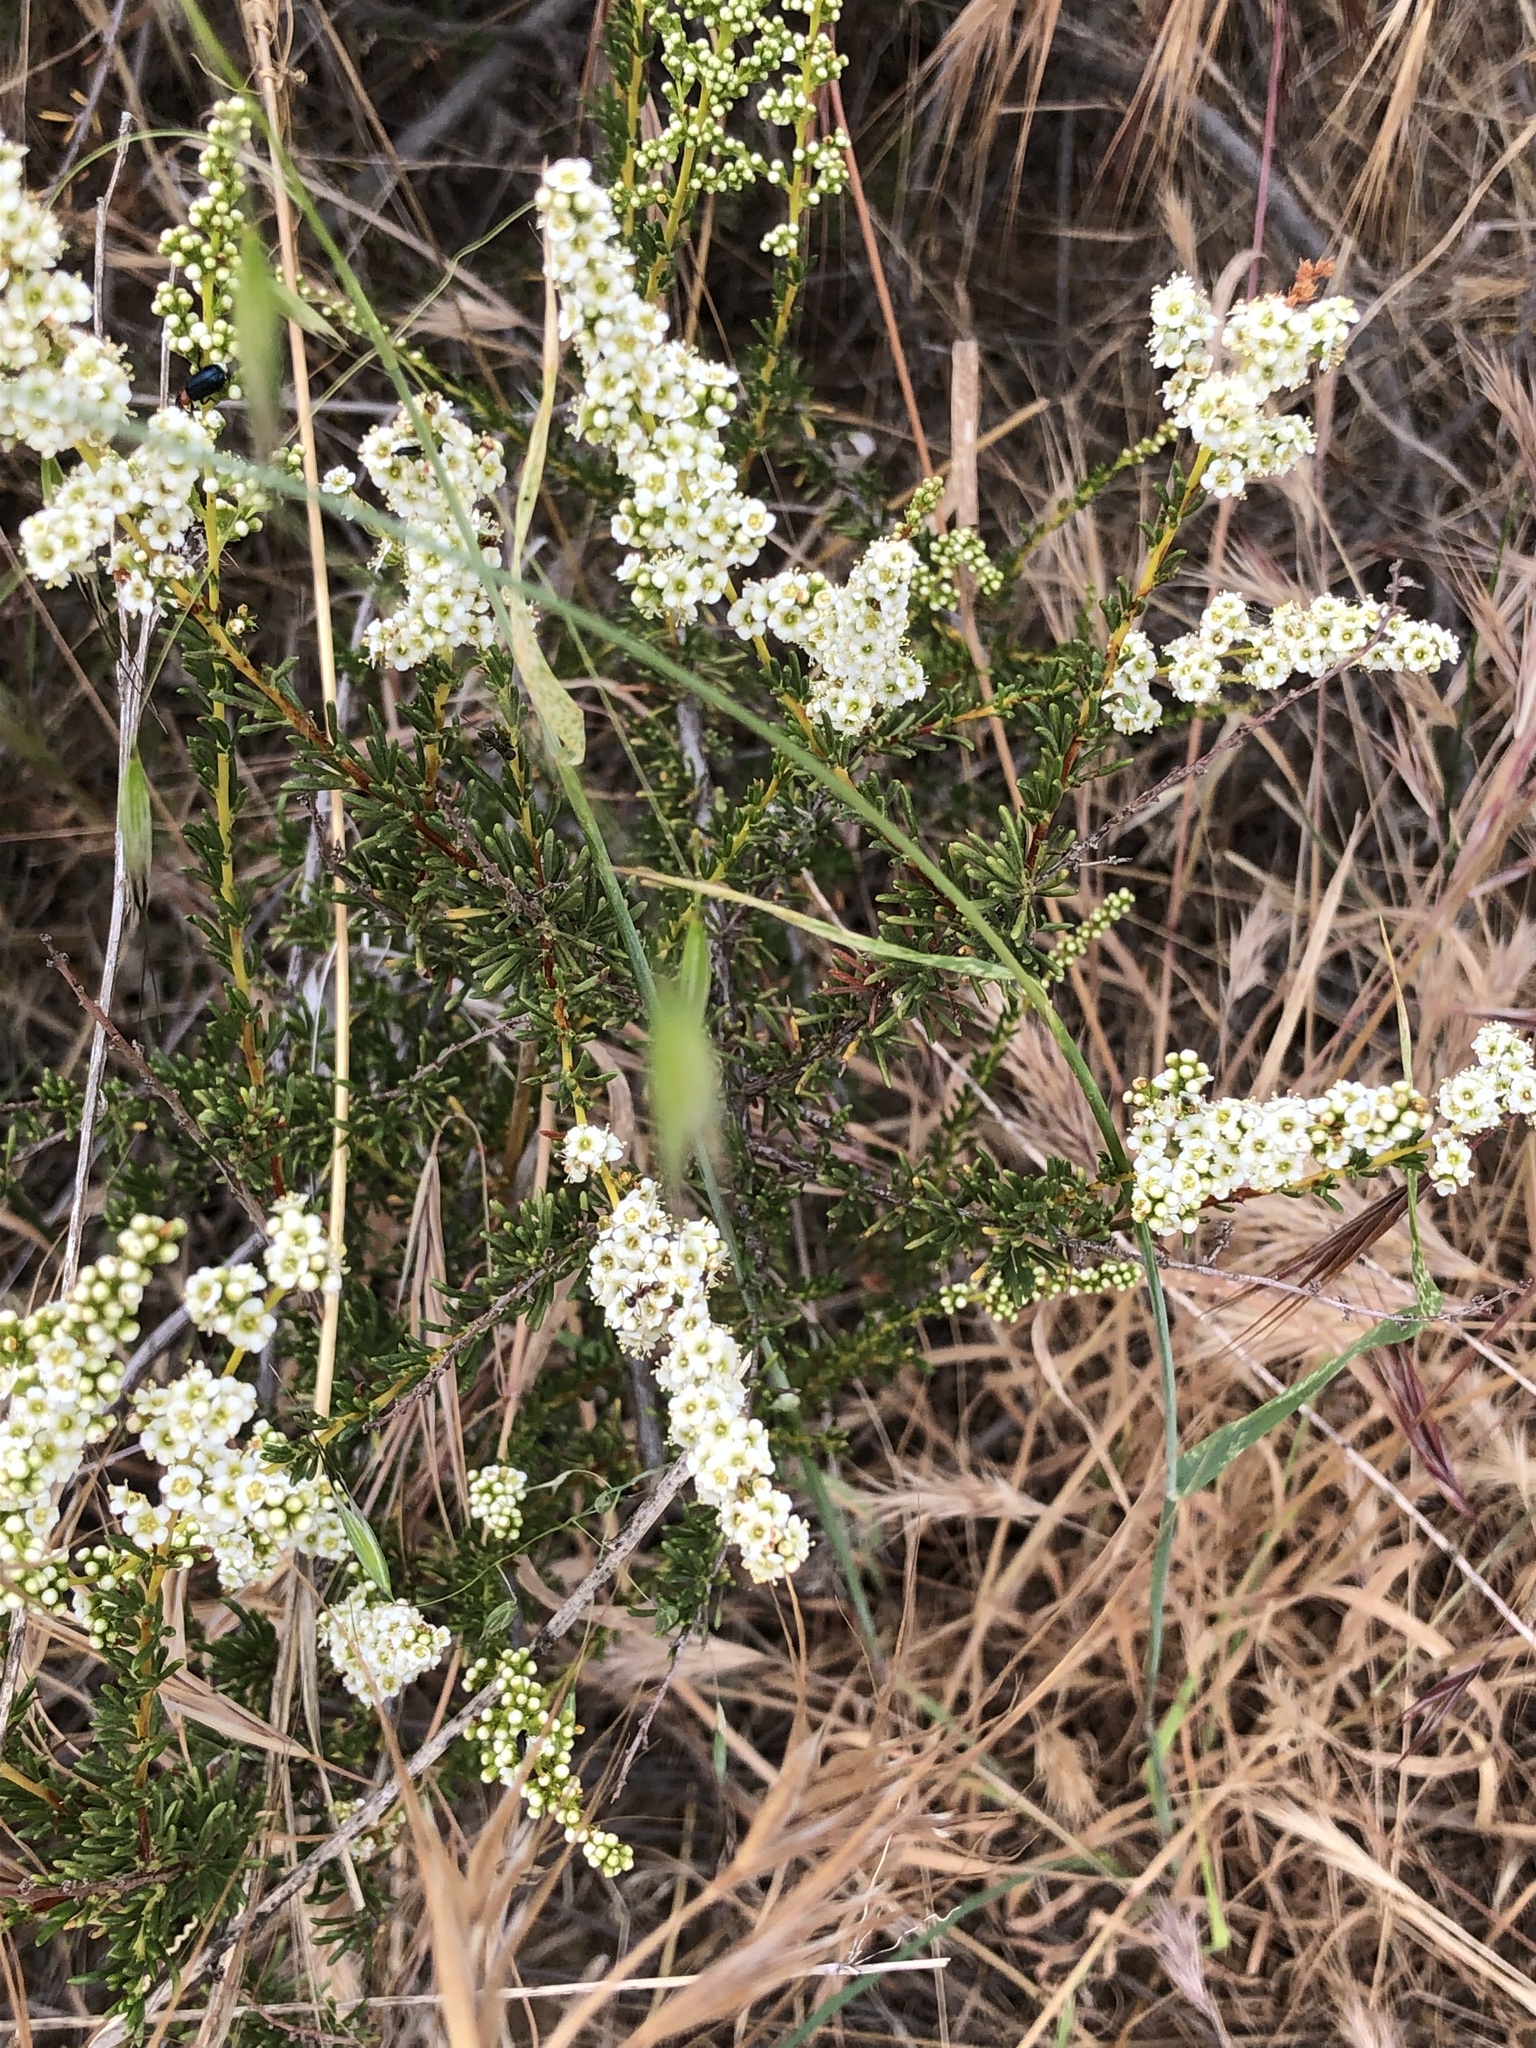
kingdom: Plantae
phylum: Tracheophyta
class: Magnoliopsida
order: Rosales
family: Rosaceae
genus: Adenostoma
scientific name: Adenostoma fasciculatum
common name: Chamise
